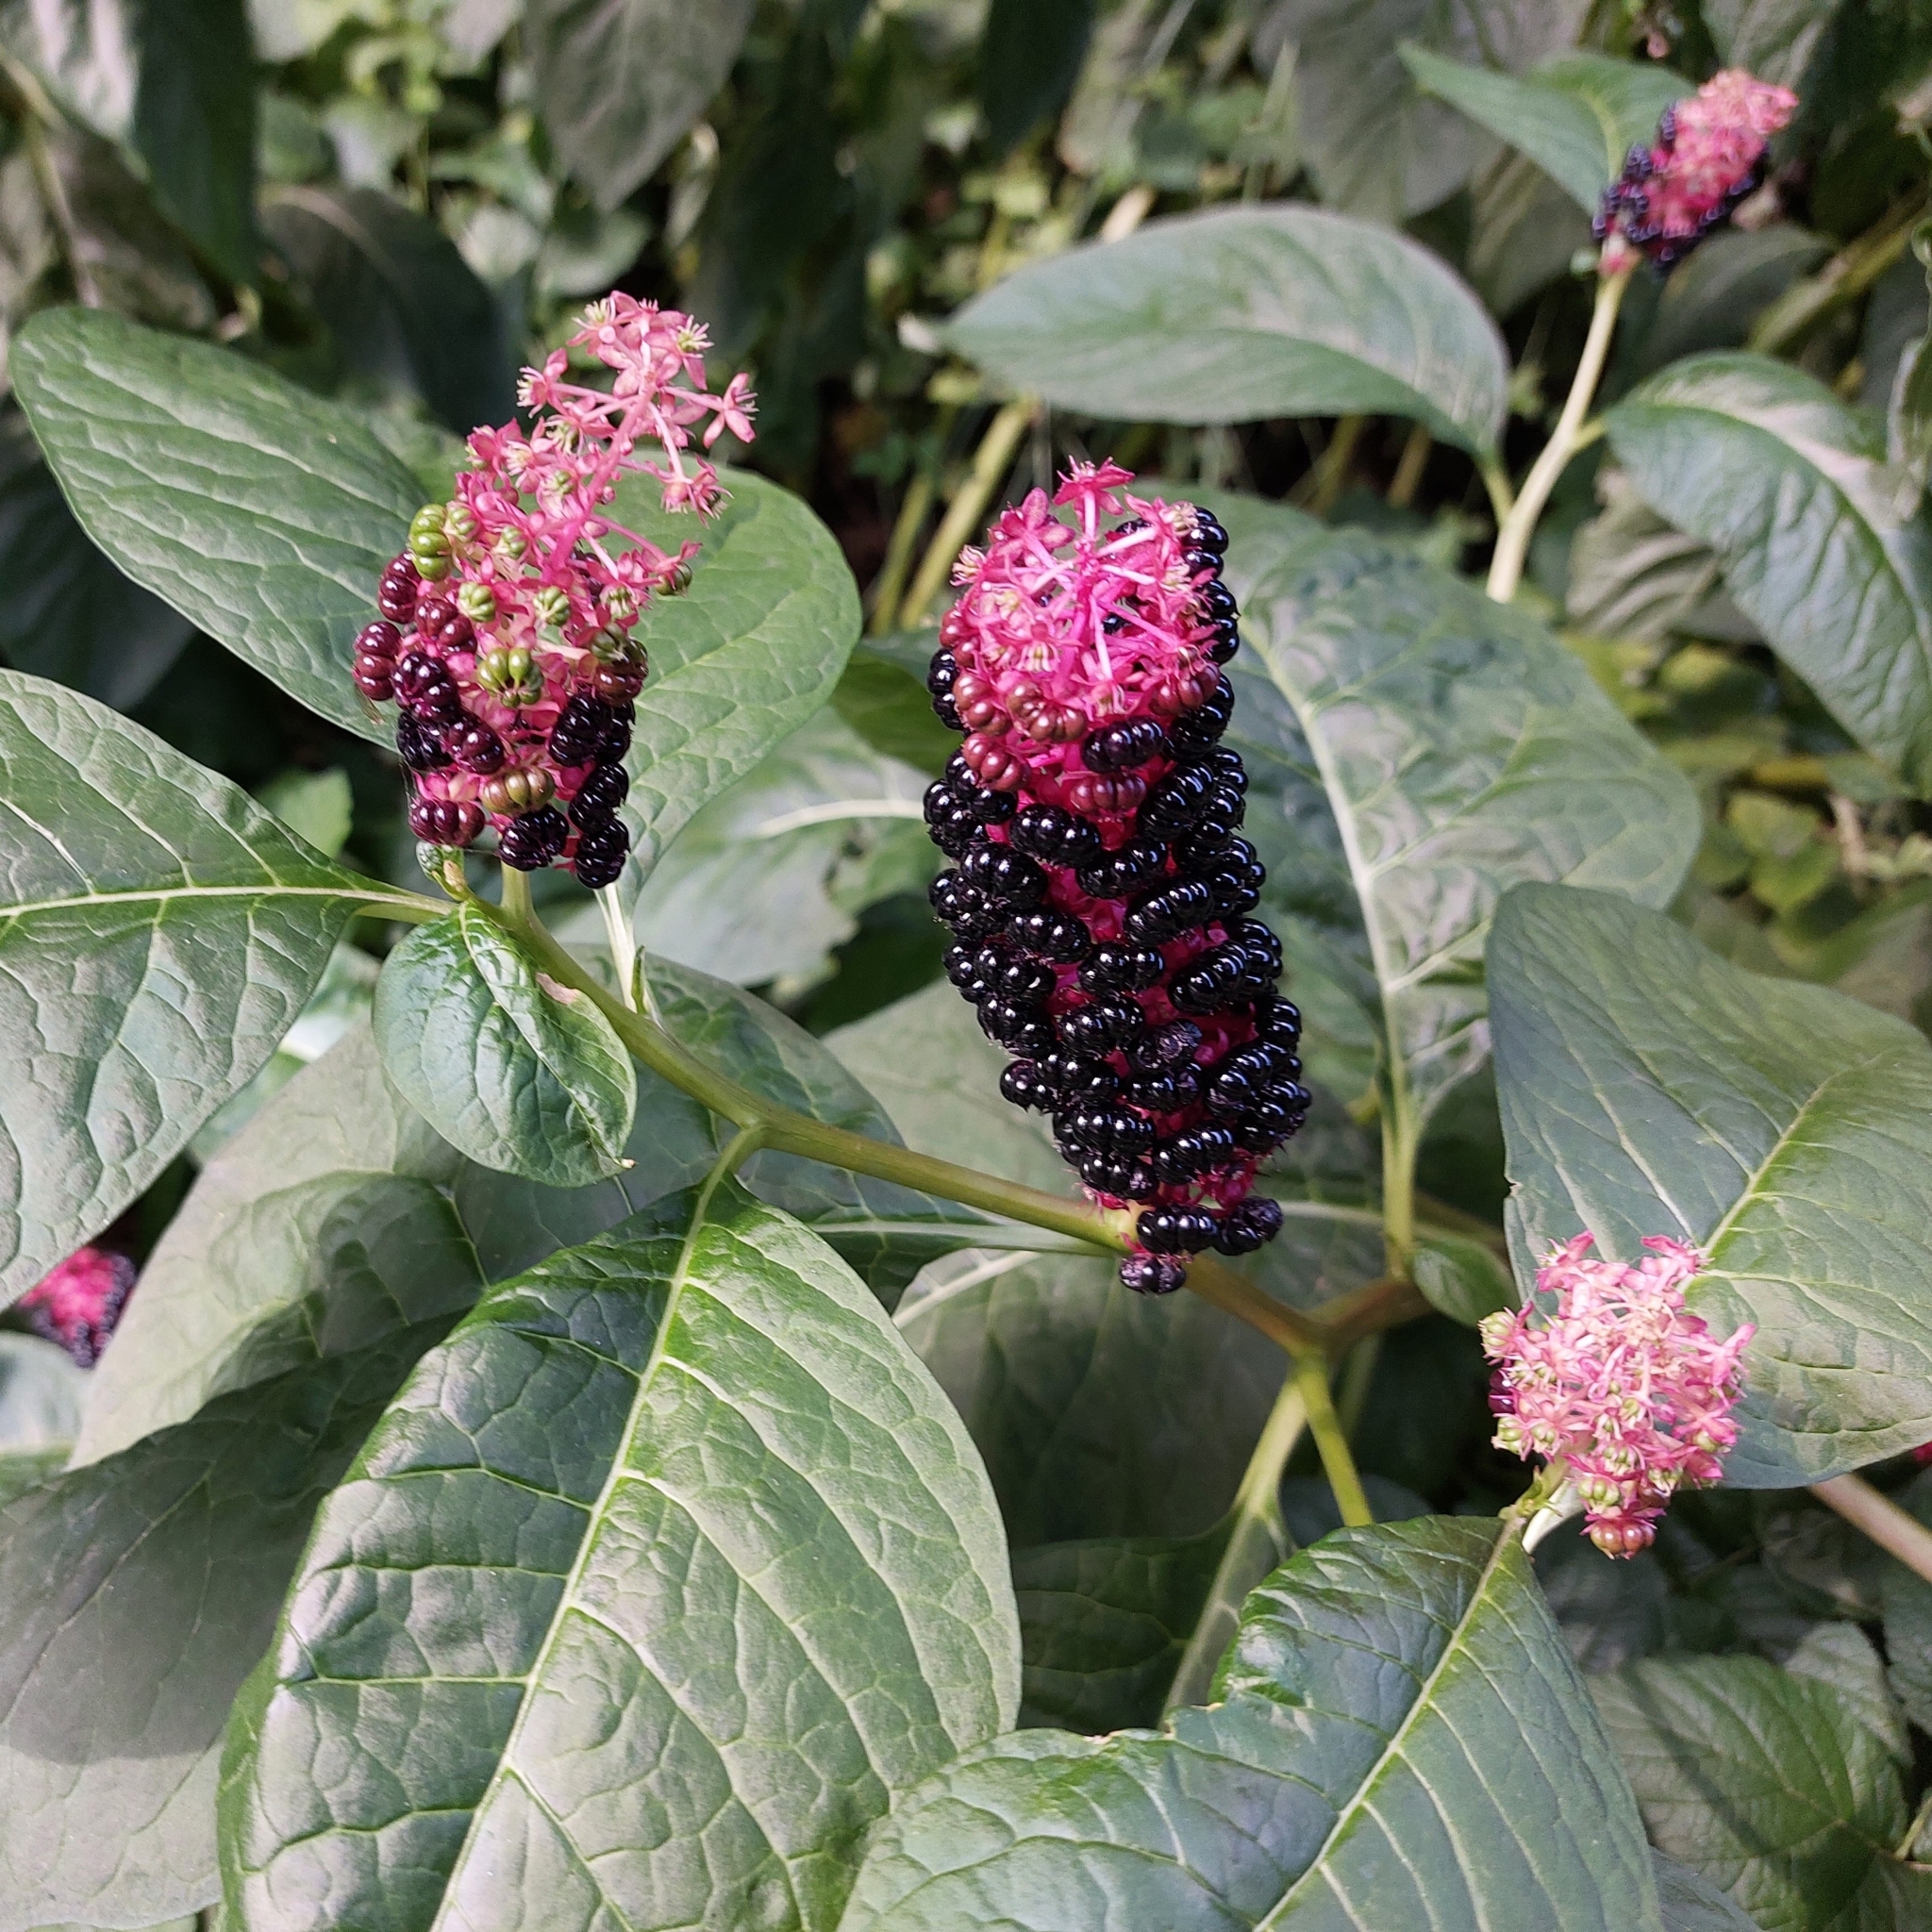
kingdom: Plantae
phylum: Tracheophyta
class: Magnoliopsida
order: Caryophyllales
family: Phytolaccaceae
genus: Phytolacca
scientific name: Phytolacca acinosa
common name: Indian pokeweed
